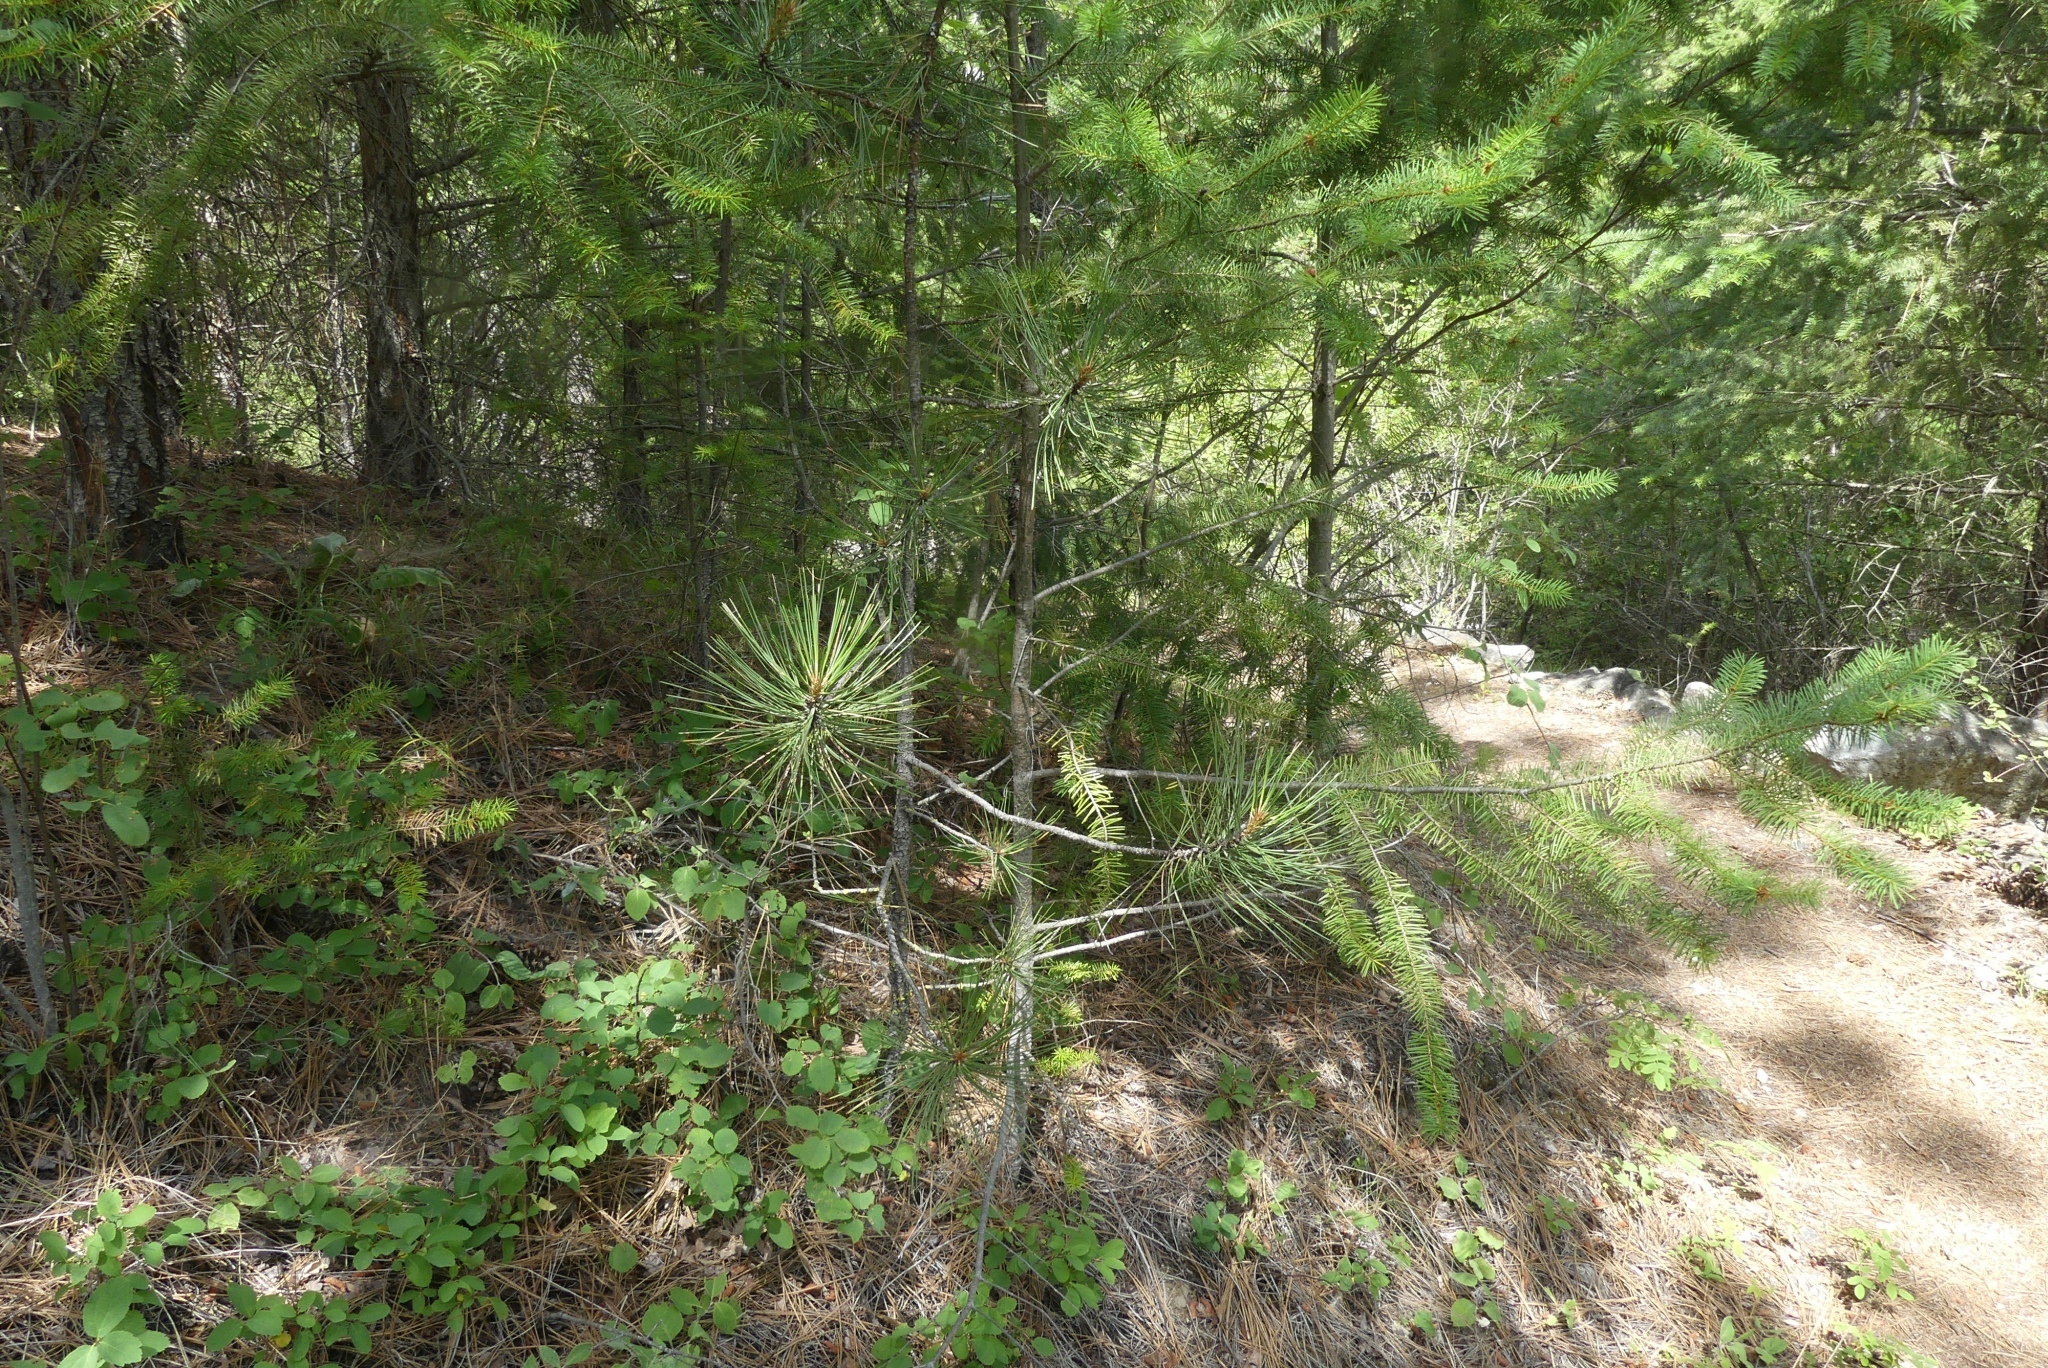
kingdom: Plantae
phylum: Tracheophyta
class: Pinopsida
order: Pinales
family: Pinaceae
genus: Pinus
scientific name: Pinus ponderosa
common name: Western yellow-pine
